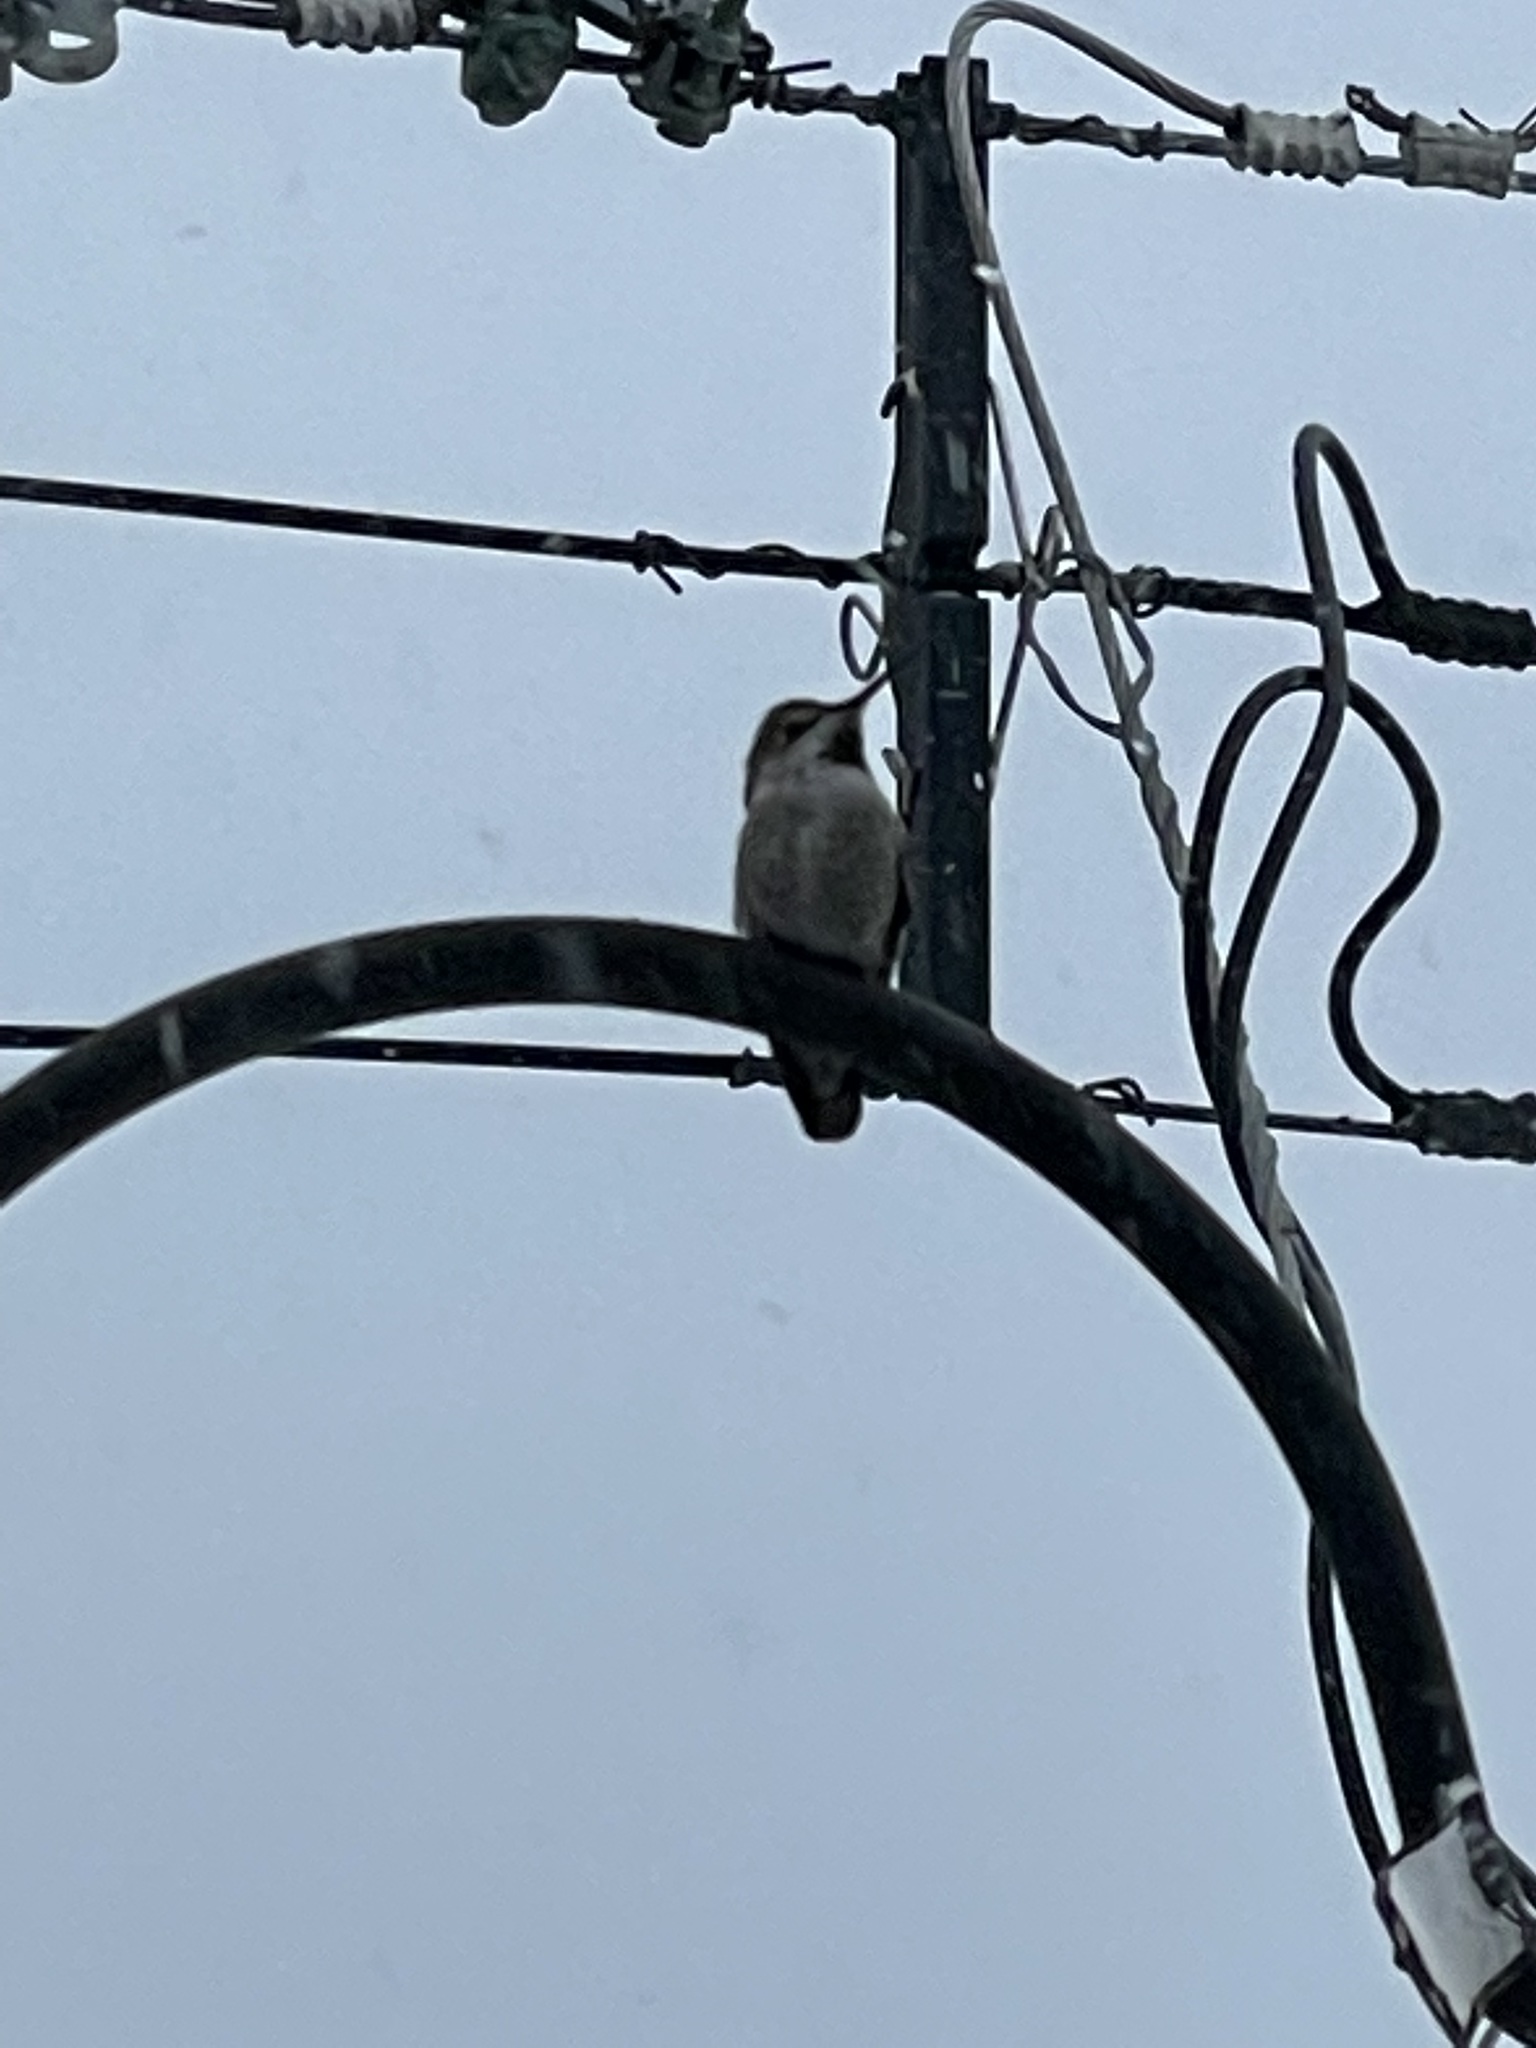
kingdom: Animalia
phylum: Chordata
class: Aves
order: Apodiformes
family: Trochilidae
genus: Calypte
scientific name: Calypte anna
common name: Anna's hummingbird
